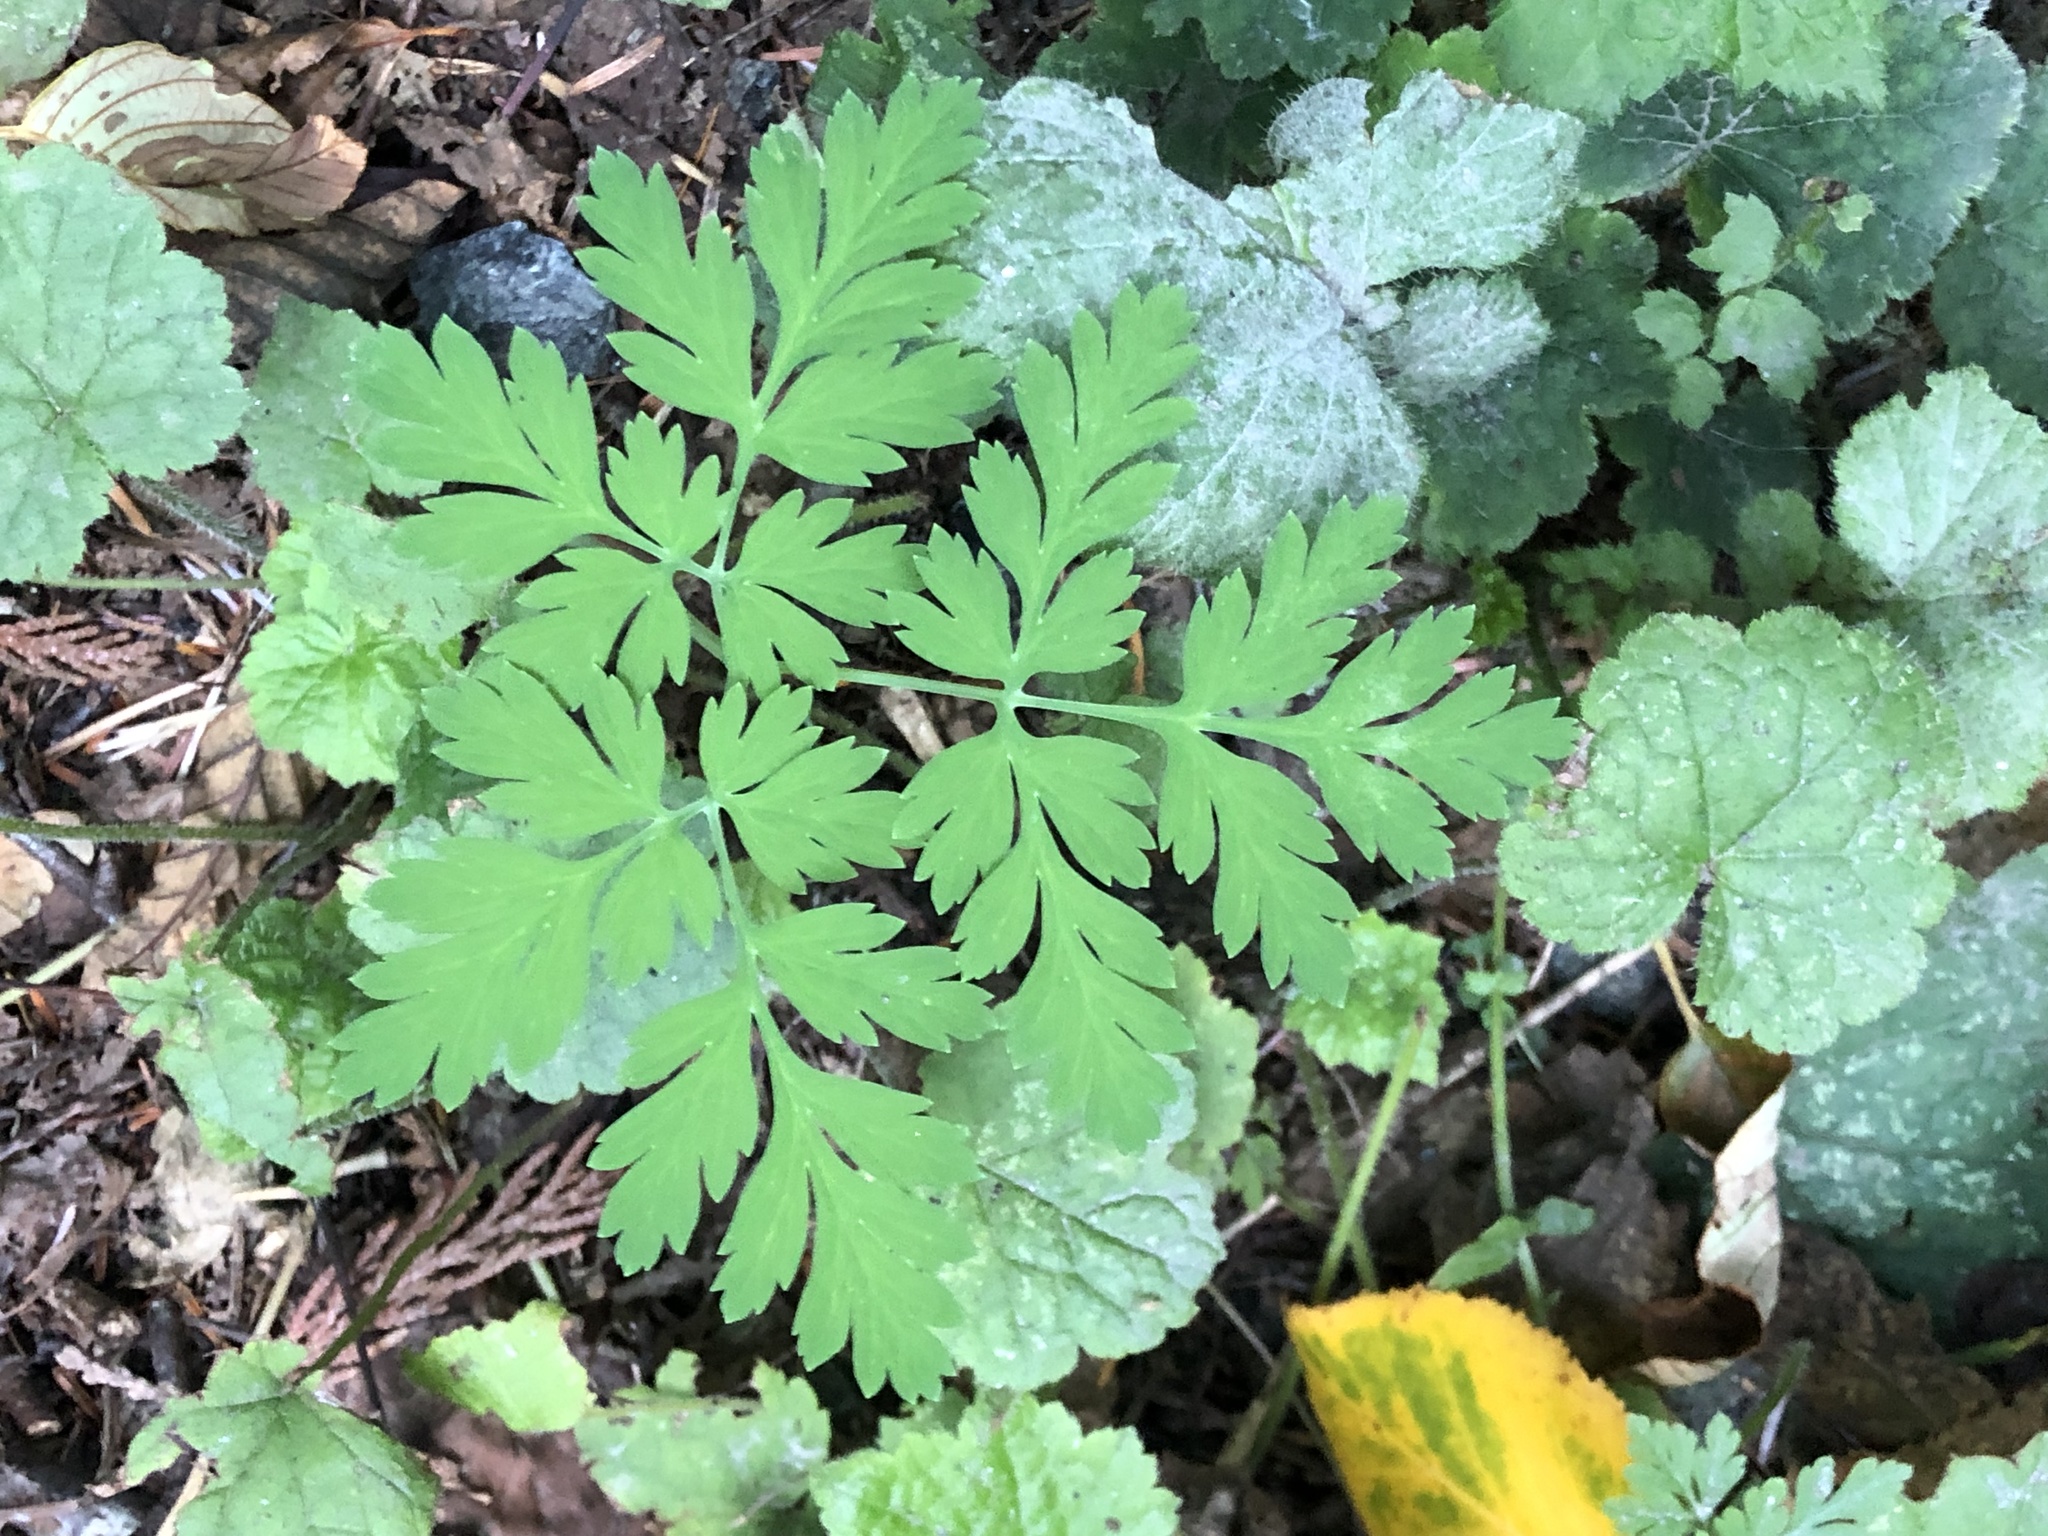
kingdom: Plantae
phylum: Tracheophyta
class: Magnoliopsida
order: Ranunculales
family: Papaveraceae
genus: Dicentra
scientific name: Dicentra formosa
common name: Bleeding-heart
